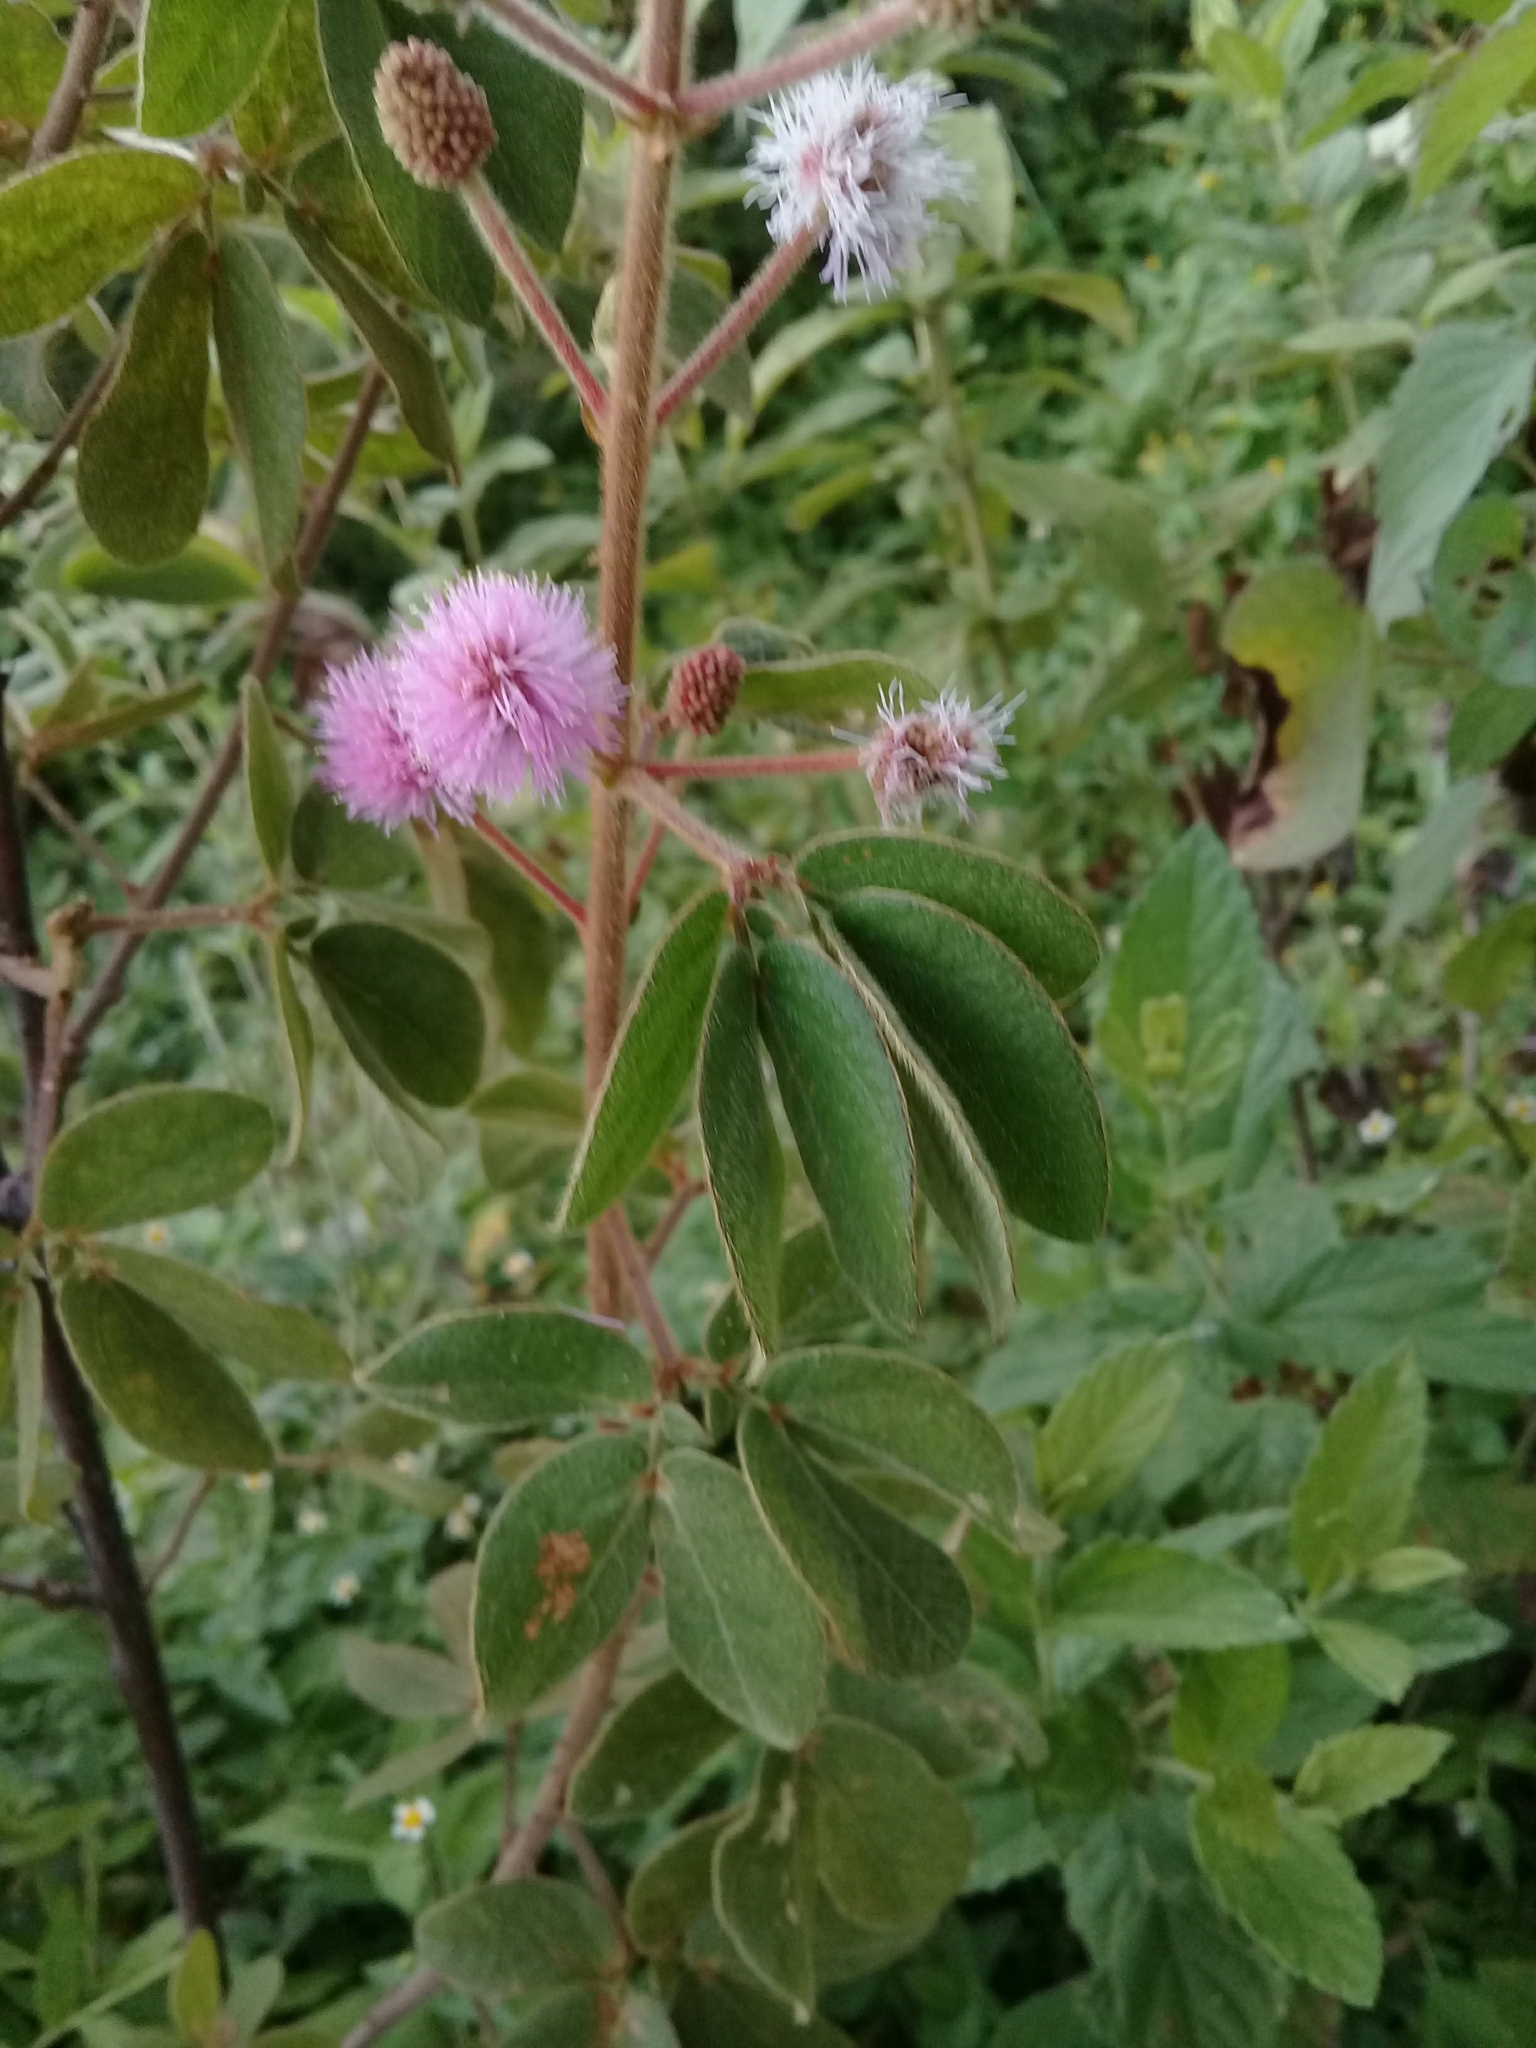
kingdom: Plantae
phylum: Tracheophyta
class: Magnoliopsida
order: Fabales
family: Fabaceae
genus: Mimosa
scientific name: Mimosa albida
